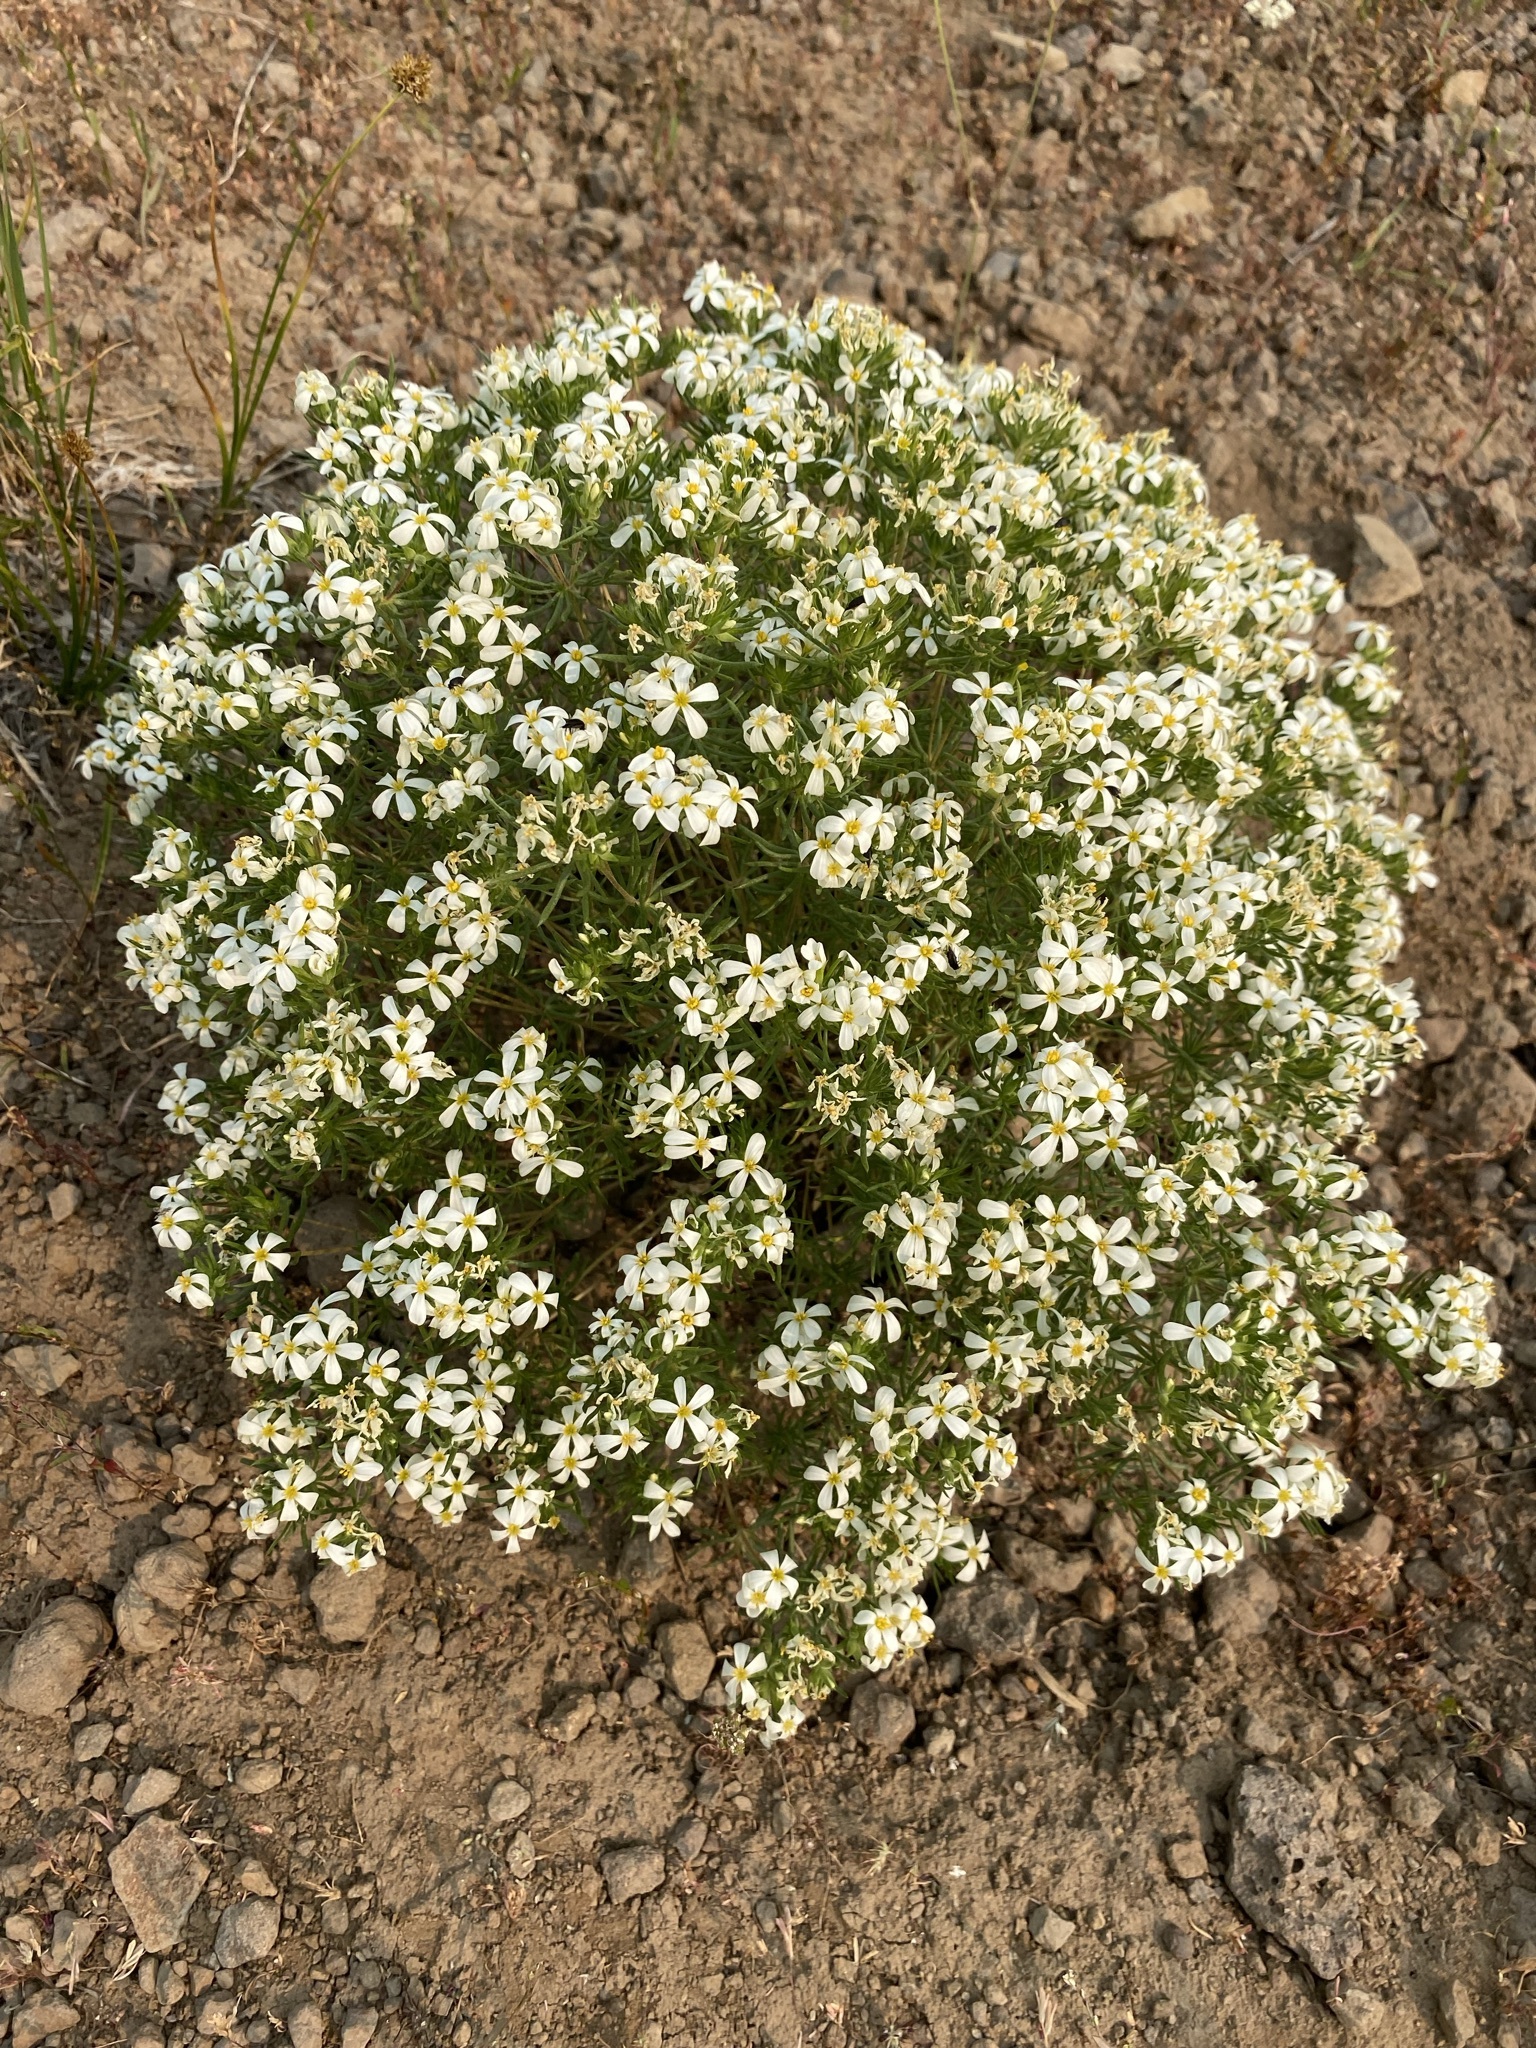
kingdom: Plantae
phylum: Tracheophyta
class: Magnoliopsida
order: Ericales
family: Polemoniaceae
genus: Leptosiphon
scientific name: Leptosiphon nuttallii
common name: Nuttall's linanthus
